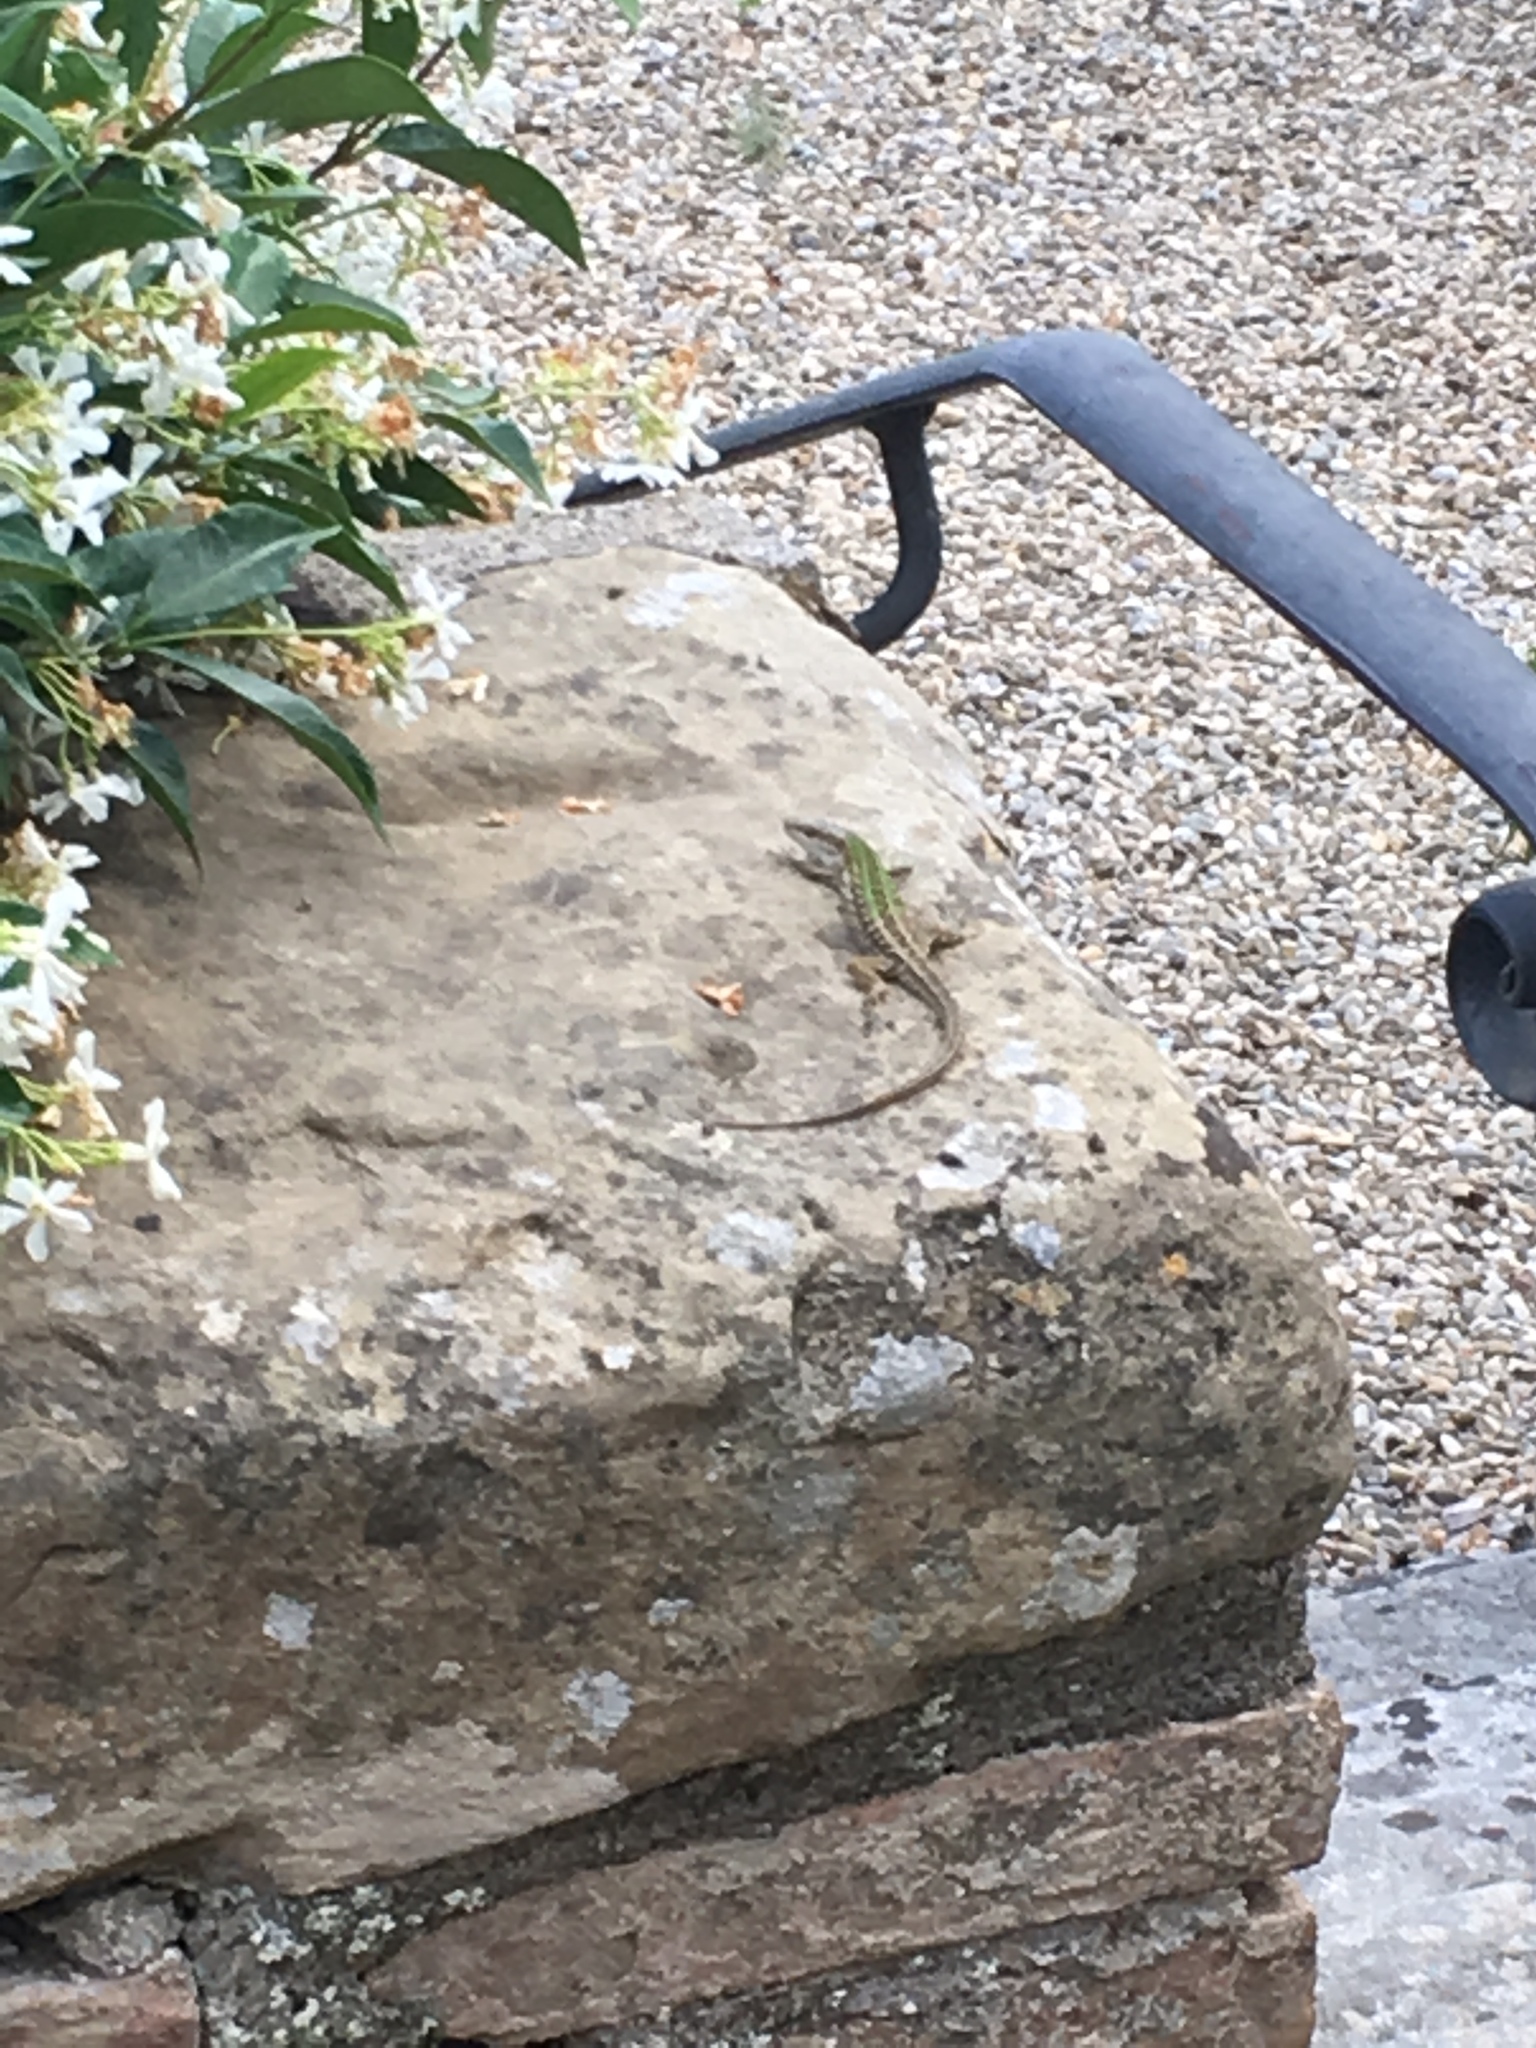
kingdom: Animalia
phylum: Chordata
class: Squamata
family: Lacertidae
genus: Podarcis
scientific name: Podarcis siculus
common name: Italian wall lizard
